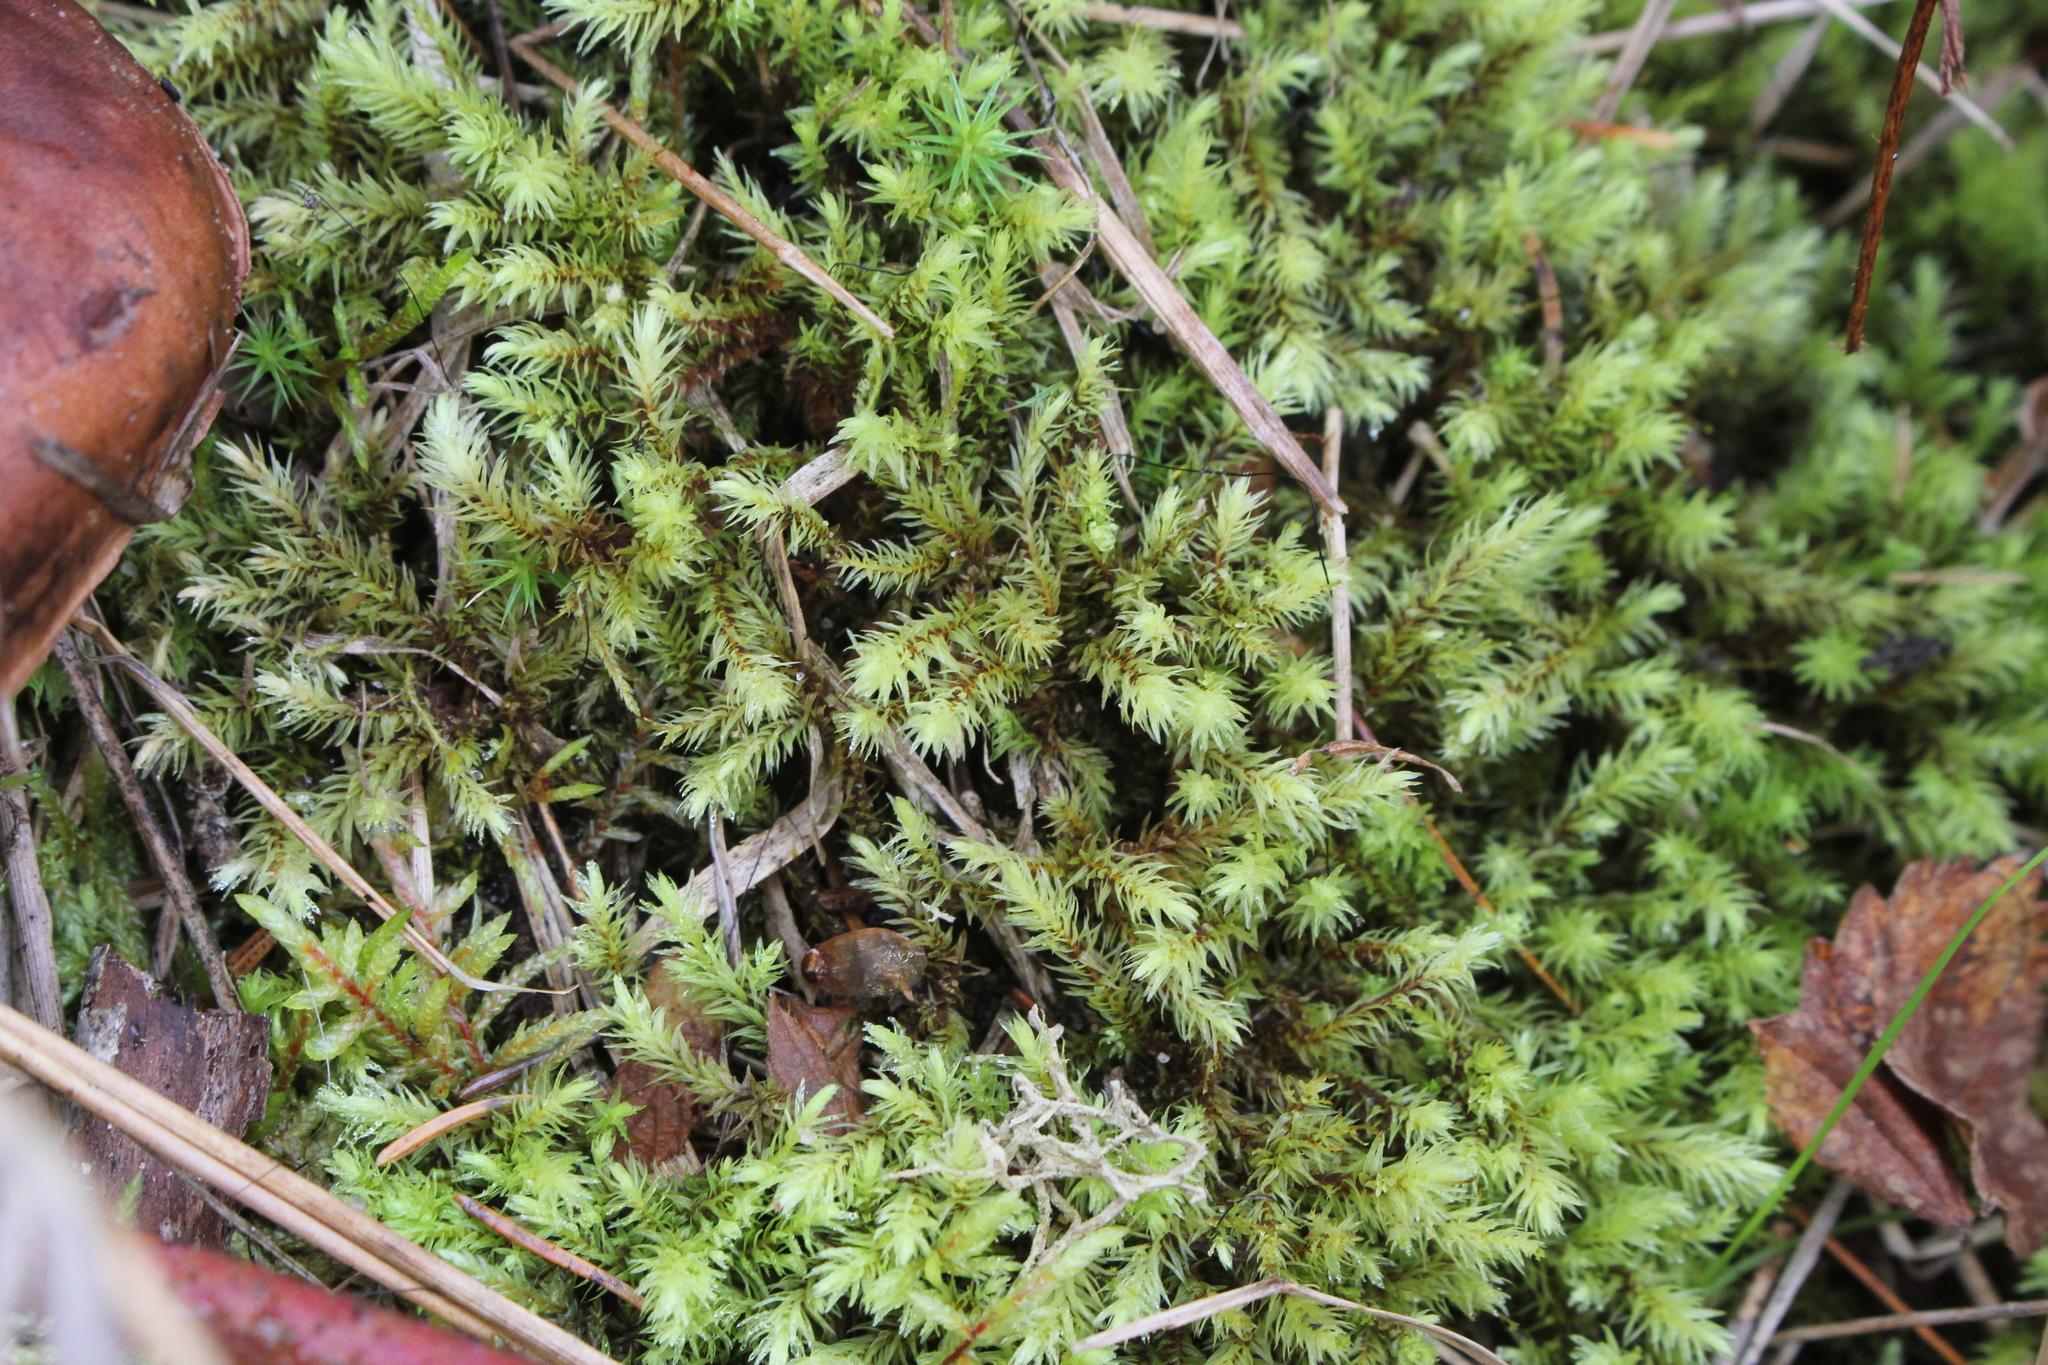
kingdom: Plantae
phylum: Bryophyta
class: Bryopsida
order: Aulacomniales
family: Aulacomniaceae
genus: Aulacomnium
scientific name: Aulacomnium palustre
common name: Bog groove-moss
